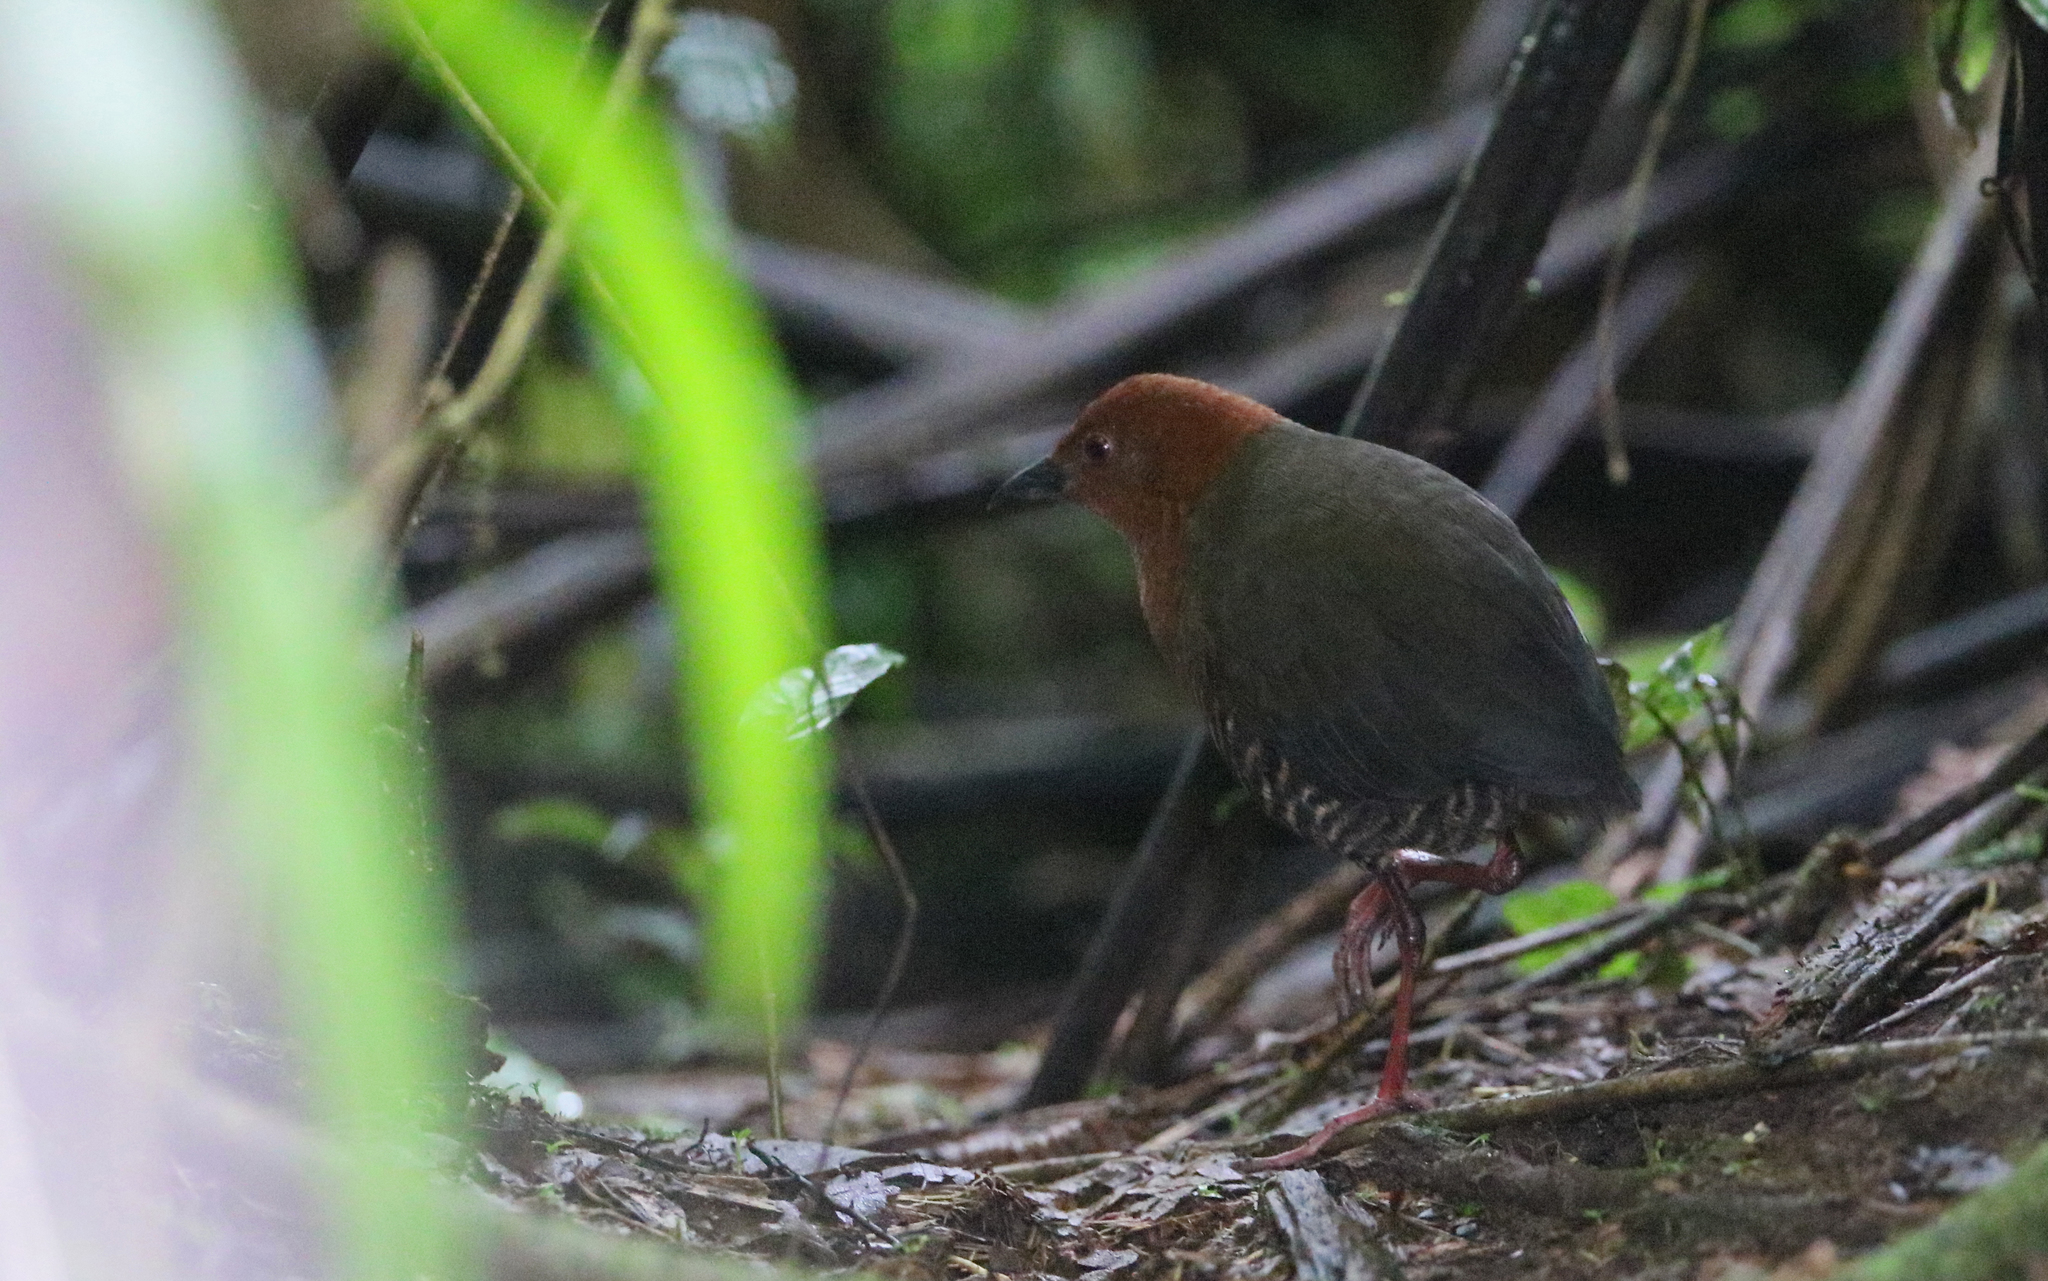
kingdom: Animalia
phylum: Chordata
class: Aves
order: Gruiformes
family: Rallidae
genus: Anurolimnas
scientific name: Anurolimnas fasciatus
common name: Black-banded crake
